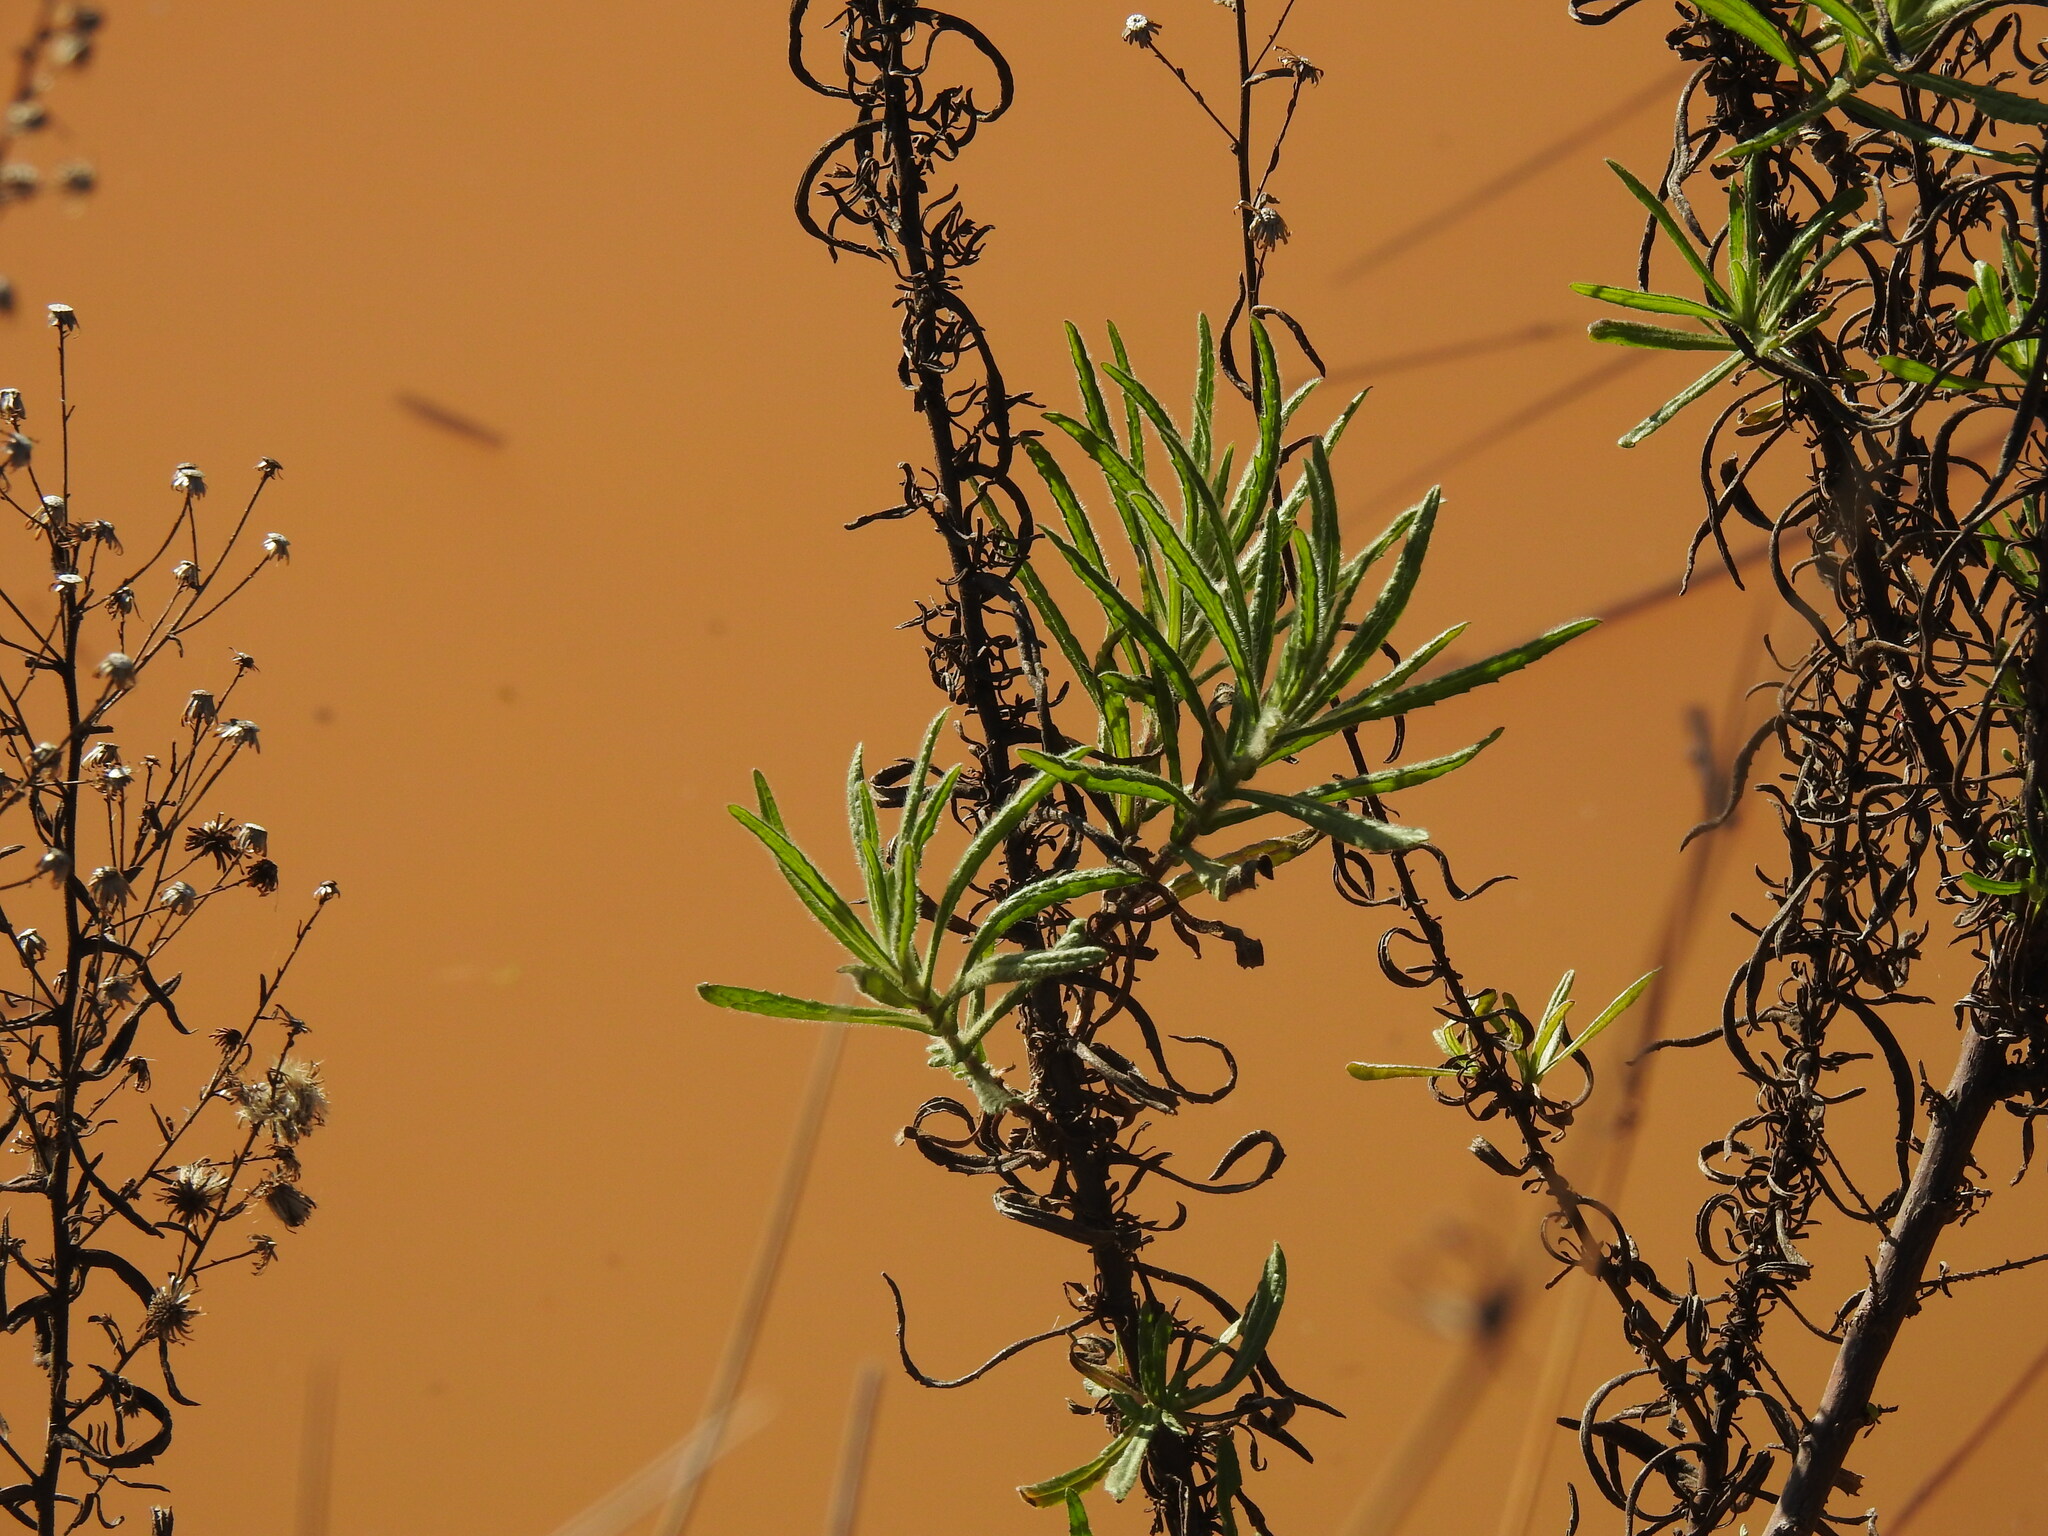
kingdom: Plantae
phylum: Tracheophyta
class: Magnoliopsida
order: Asterales
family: Asteraceae
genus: Dittrichia
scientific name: Dittrichia viscosa
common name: Woody fleabane
